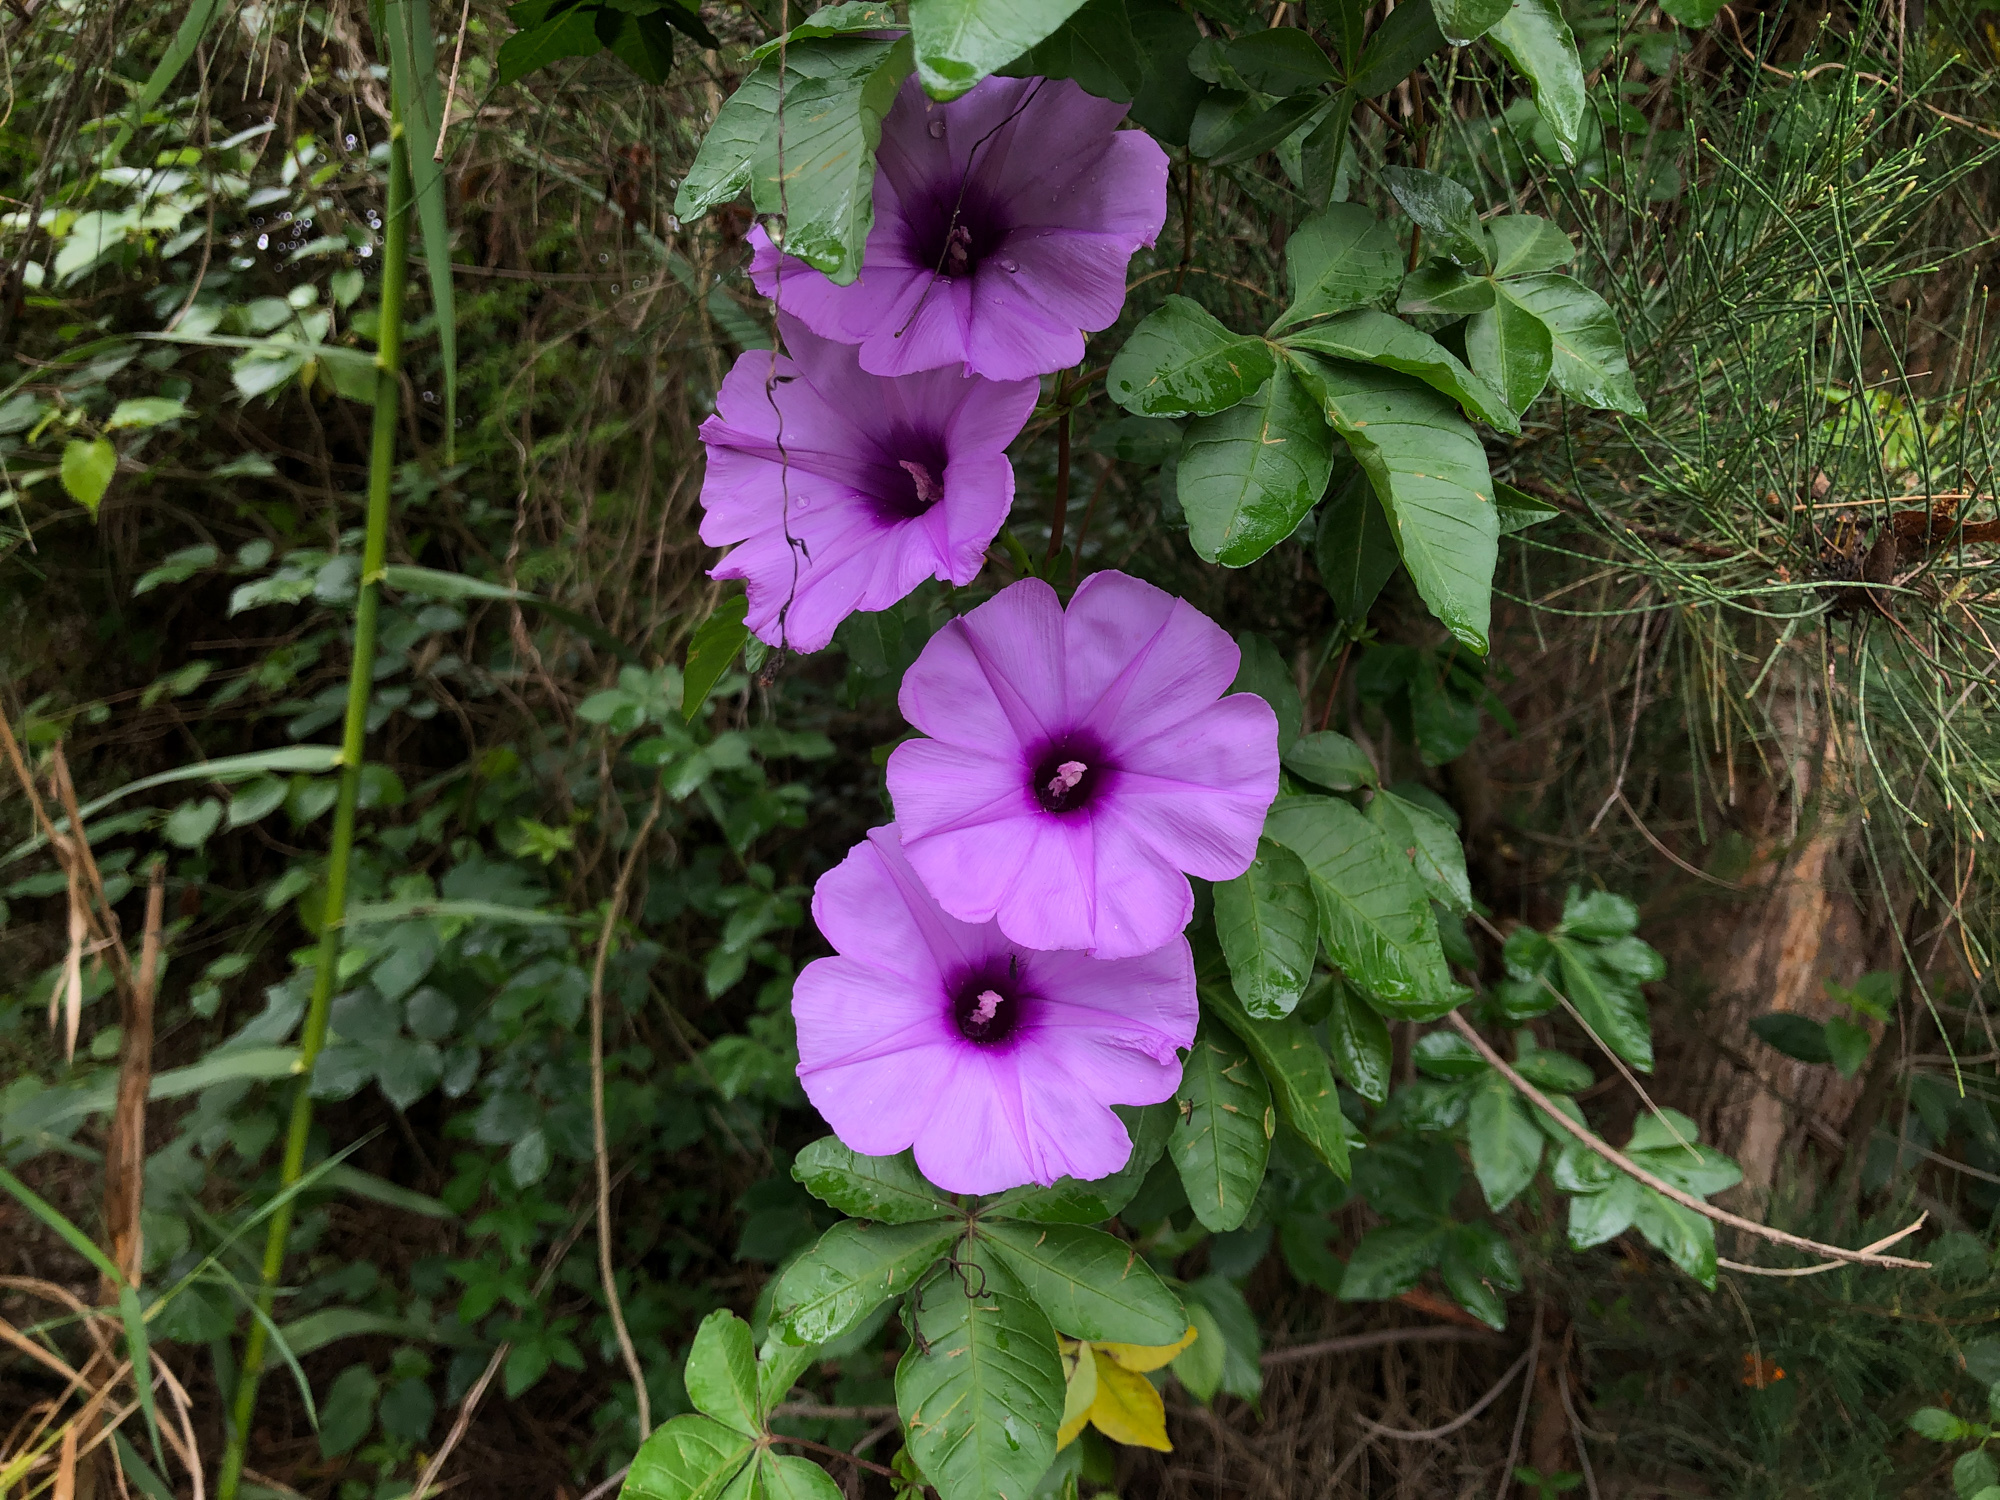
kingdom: Plantae
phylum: Tracheophyta
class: Magnoliopsida
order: Solanales
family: Convolvulaceae
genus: Ipomoea
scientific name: Ipomoea cairica
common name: Mile a minute vine
